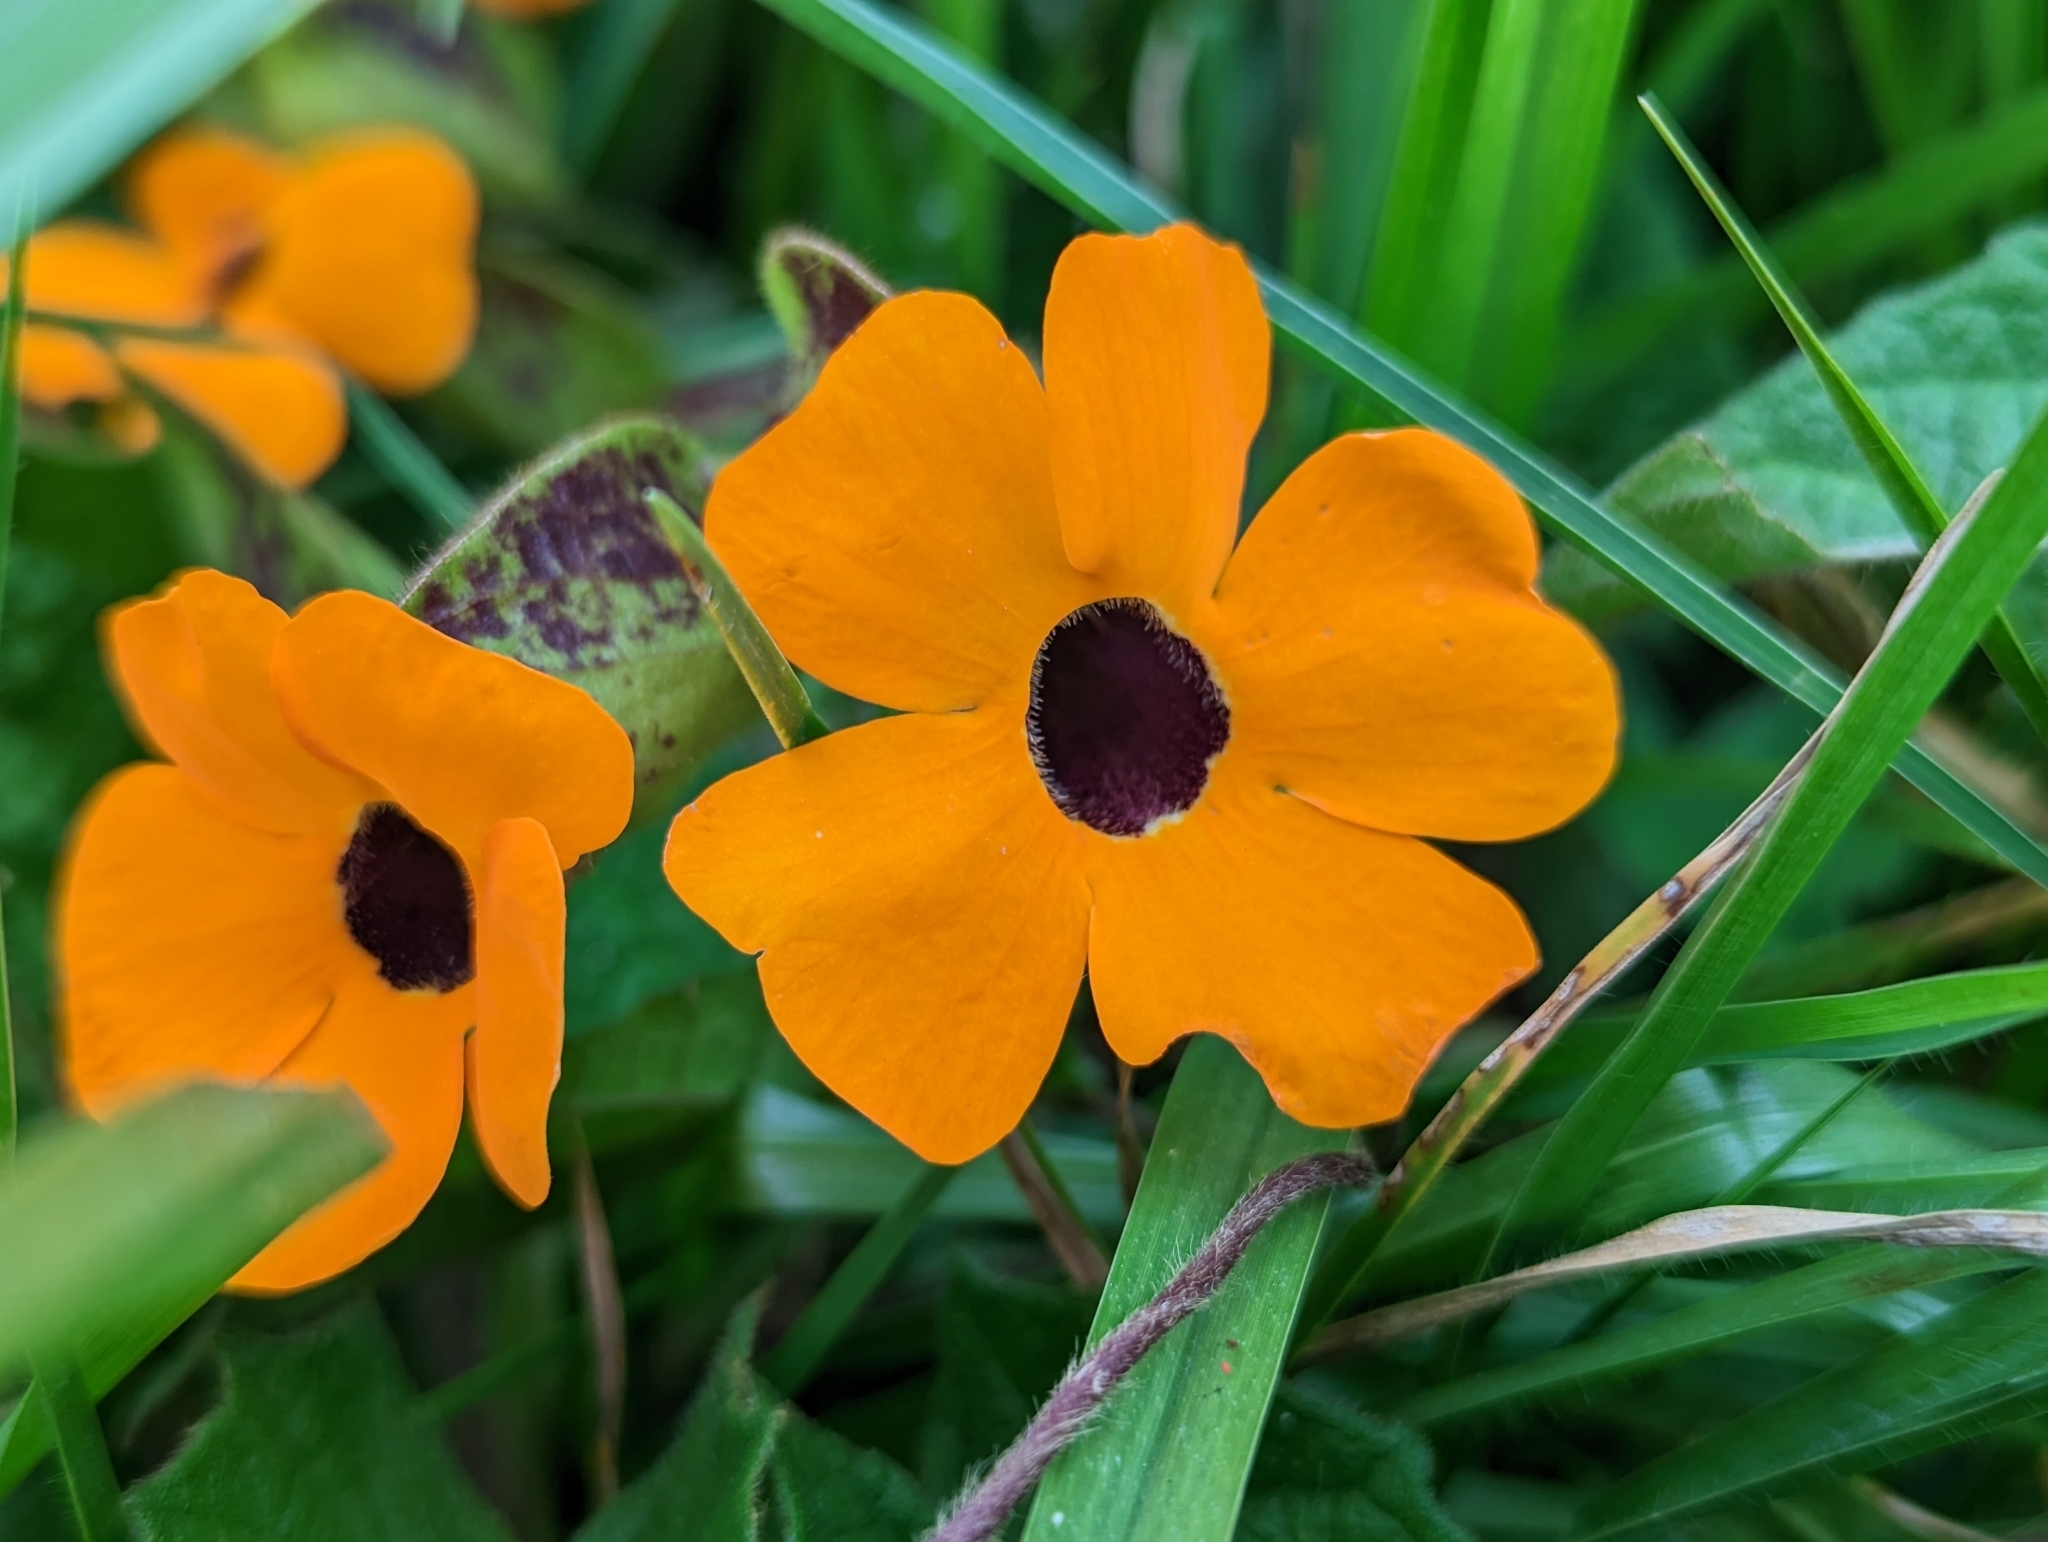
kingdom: Plantae
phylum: Tracheophyta
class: Magnoliopsida
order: Lamiales
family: Acanthaceae
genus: Thunbergia
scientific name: Thunbergia alata
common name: Blackeyed susan vine
